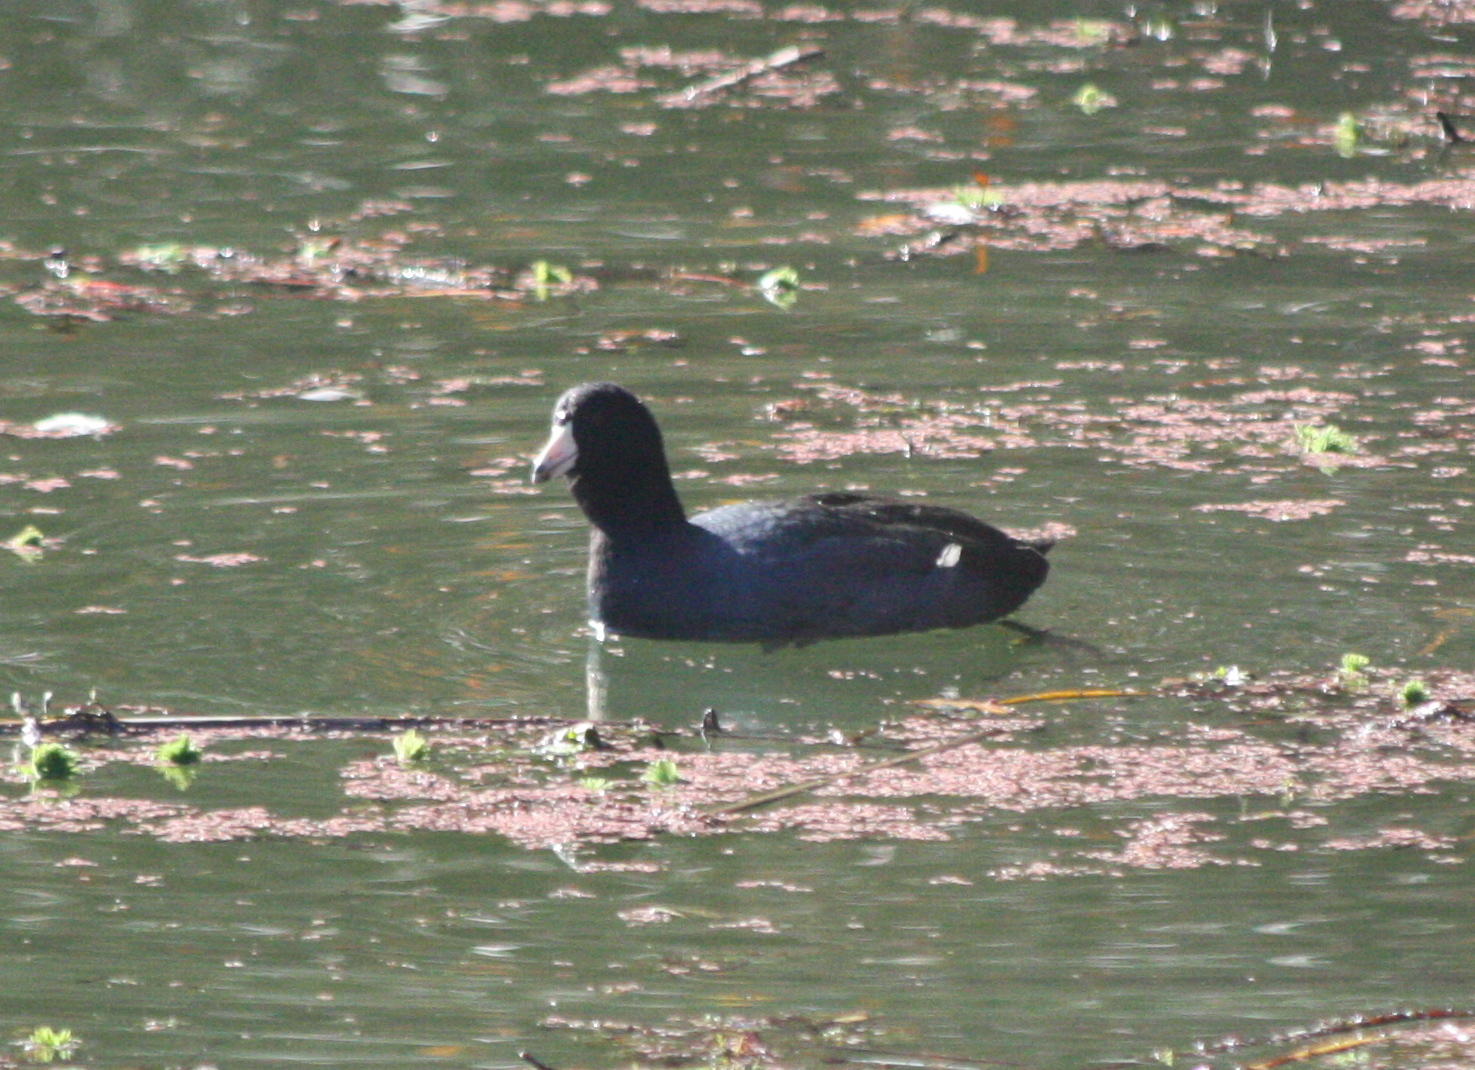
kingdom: Animalia
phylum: Chordata
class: Aves
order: Gruiformes
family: Rallidae
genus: Fulica
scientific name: Fulica americana
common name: American coot
